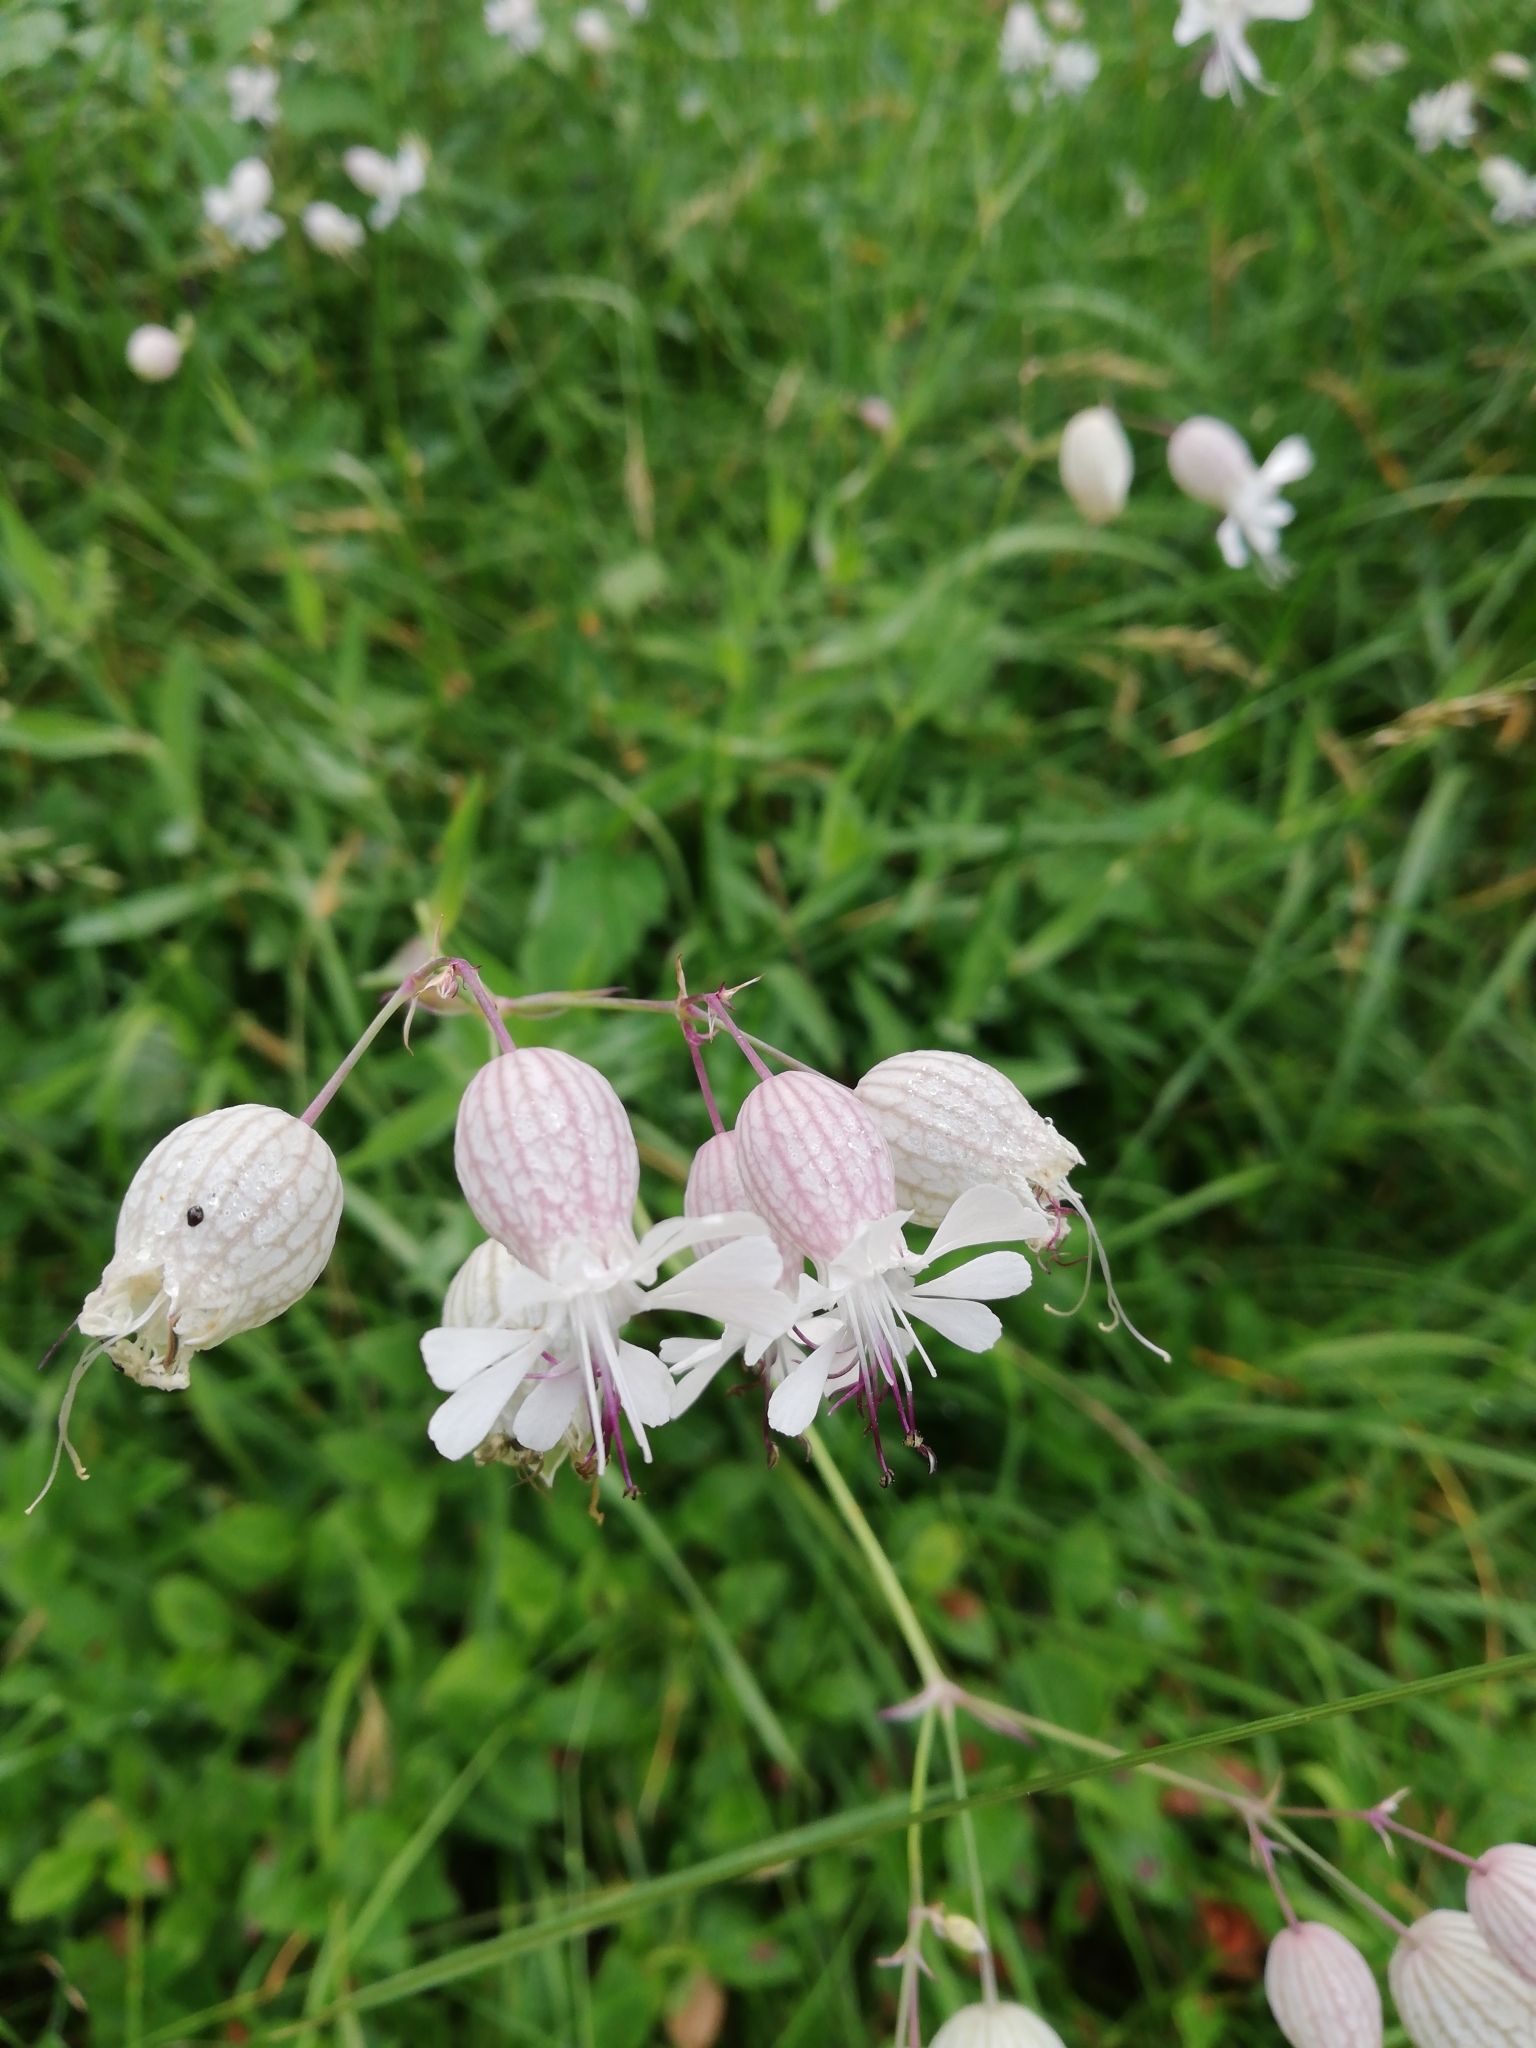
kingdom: Plantae
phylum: Tracheophyta
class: Magnoliopsida
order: Caryophyllales
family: Caryophyllaceae
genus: Silene
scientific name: Silene vulgaris
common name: Bladder campion
